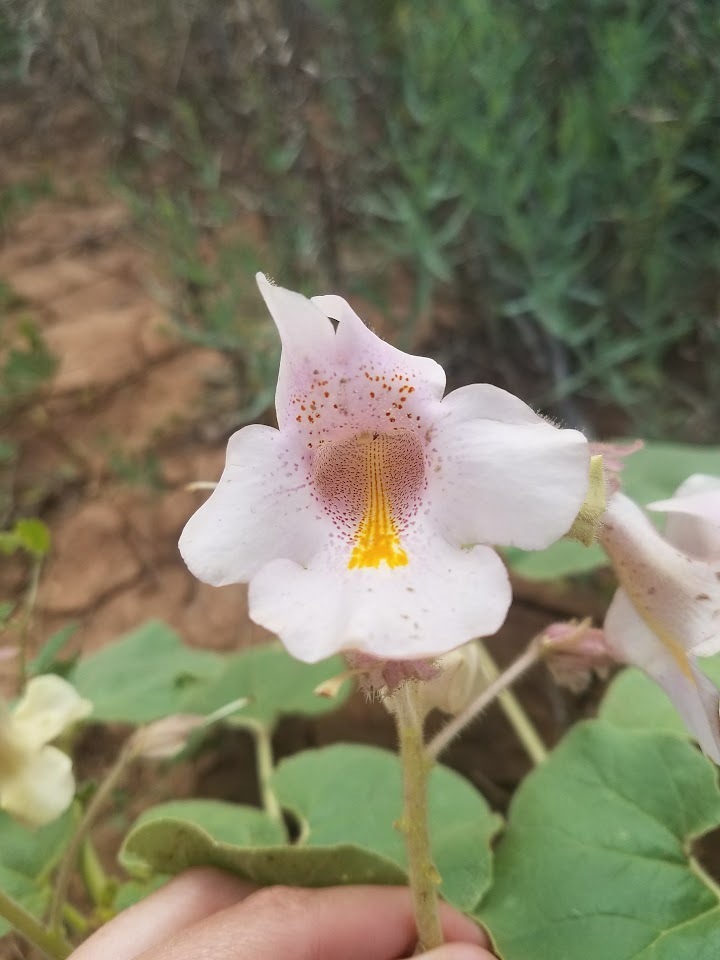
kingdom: Plantae
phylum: Tracheophyta
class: Magnoliopsida
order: Lamiales
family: Martyniaceae
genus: Proboscidea
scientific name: Proboscidea louisianica
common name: Elephant tusks
